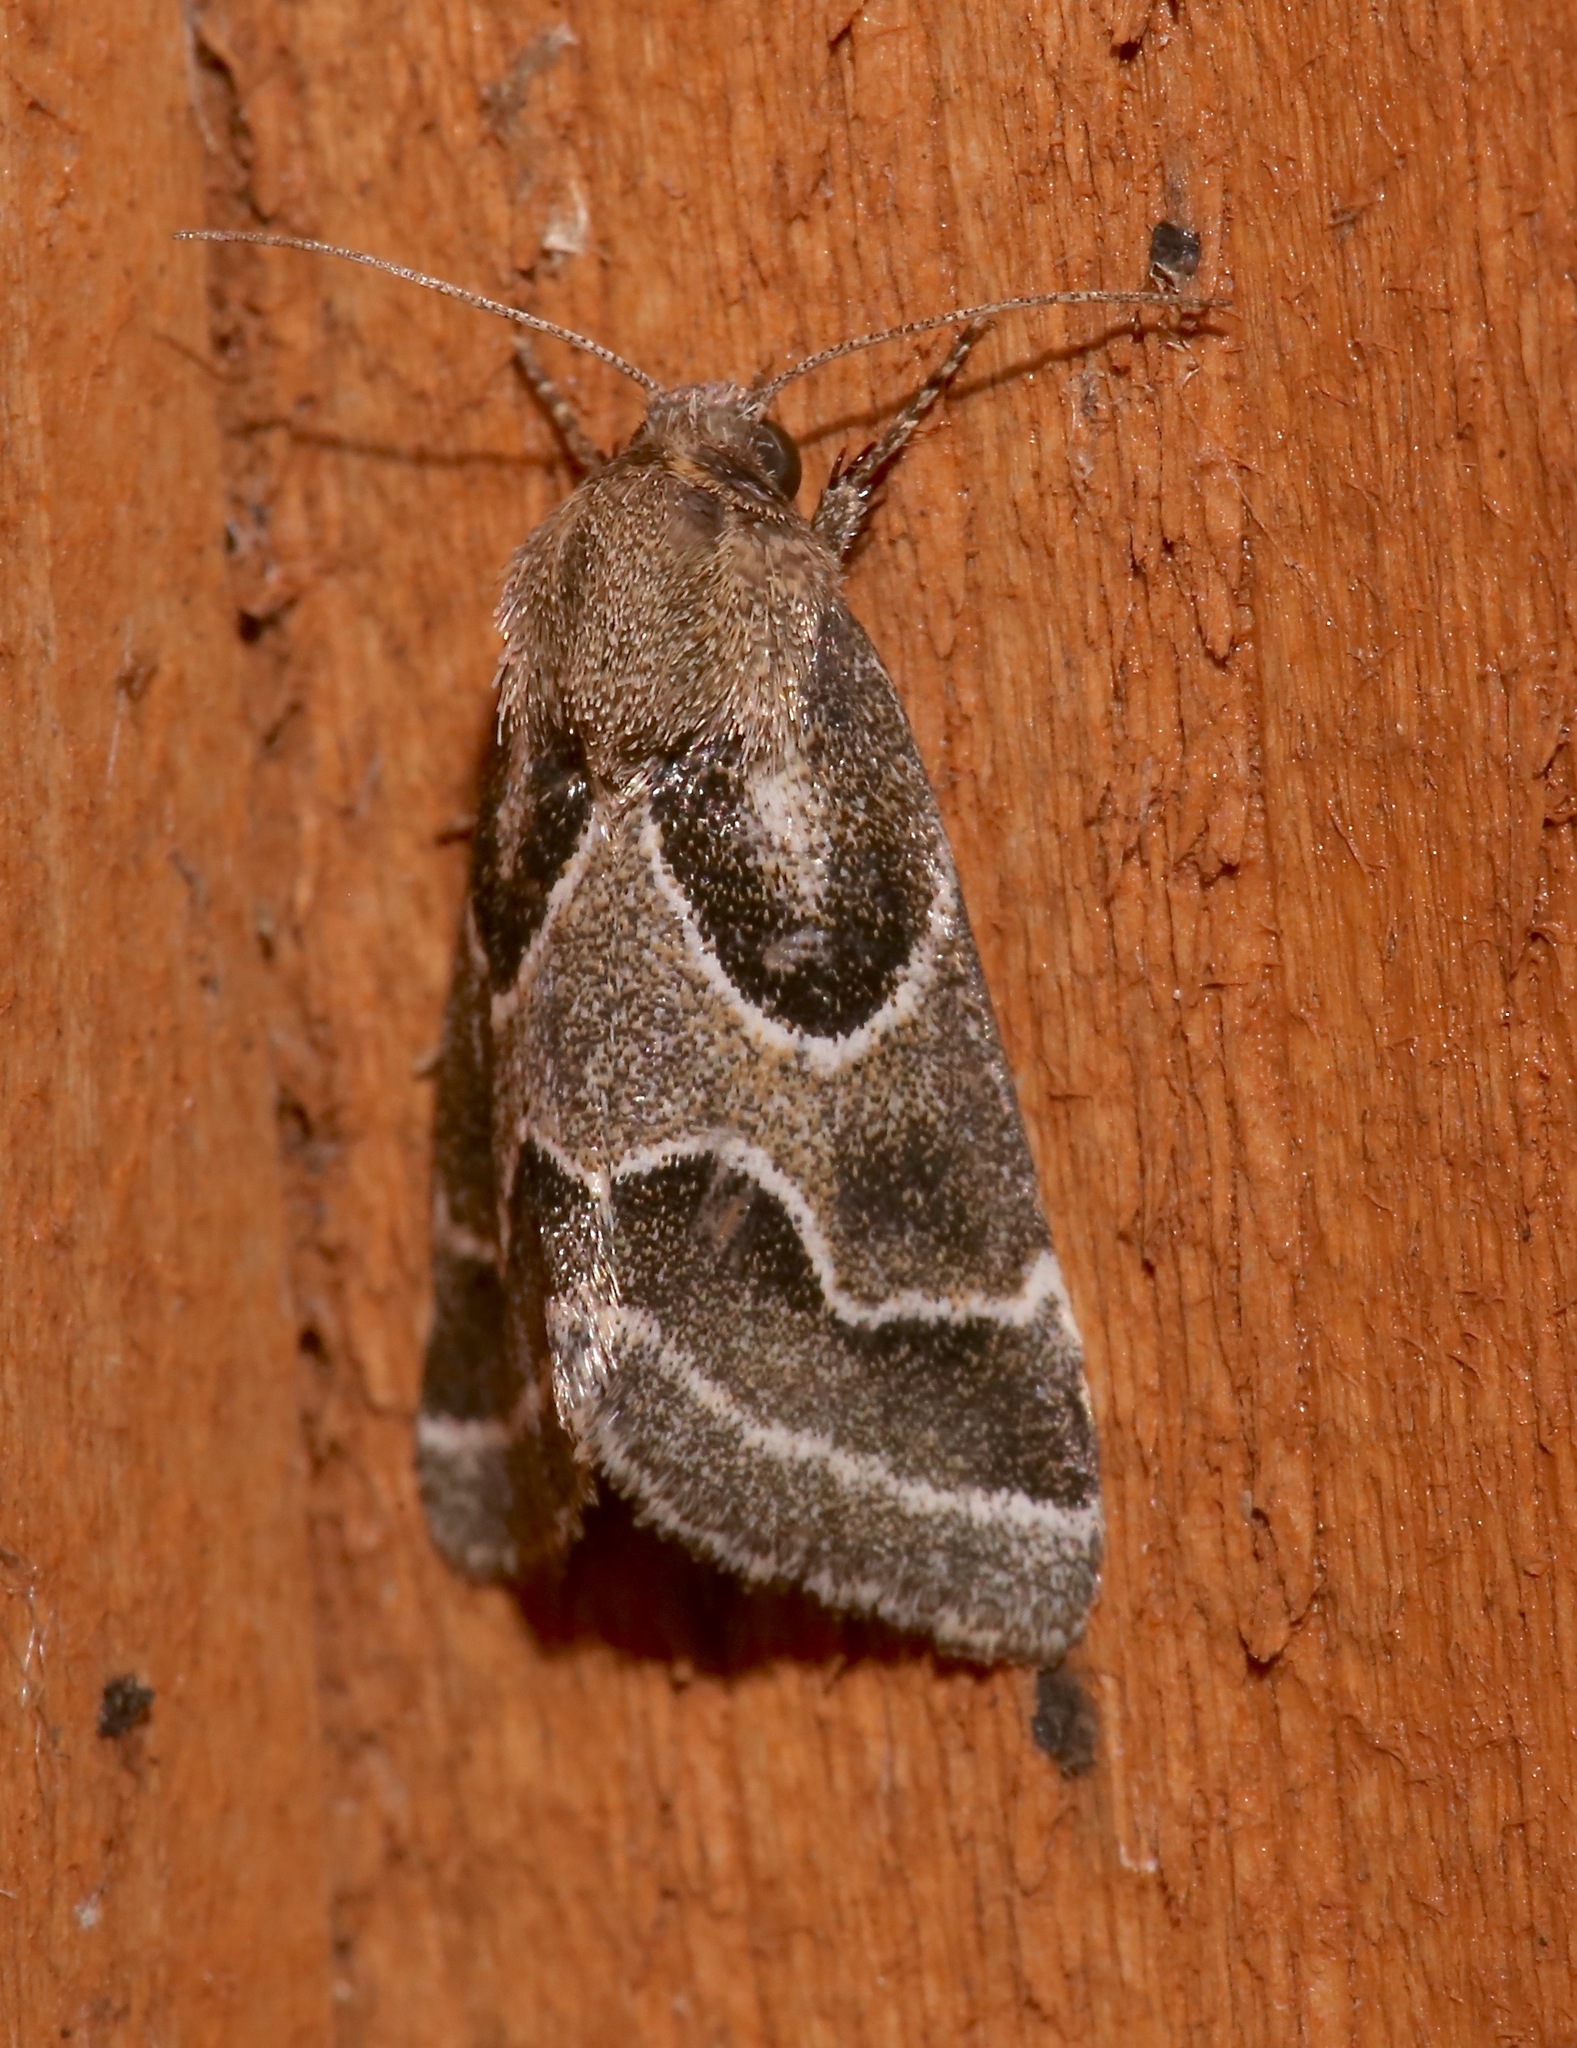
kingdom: Animalia
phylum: Arthropoda
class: Insecta
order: Lepidoptera
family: Noctuidae
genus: Schinia
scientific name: Schinia rivulosa
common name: Scarce meal-moth
